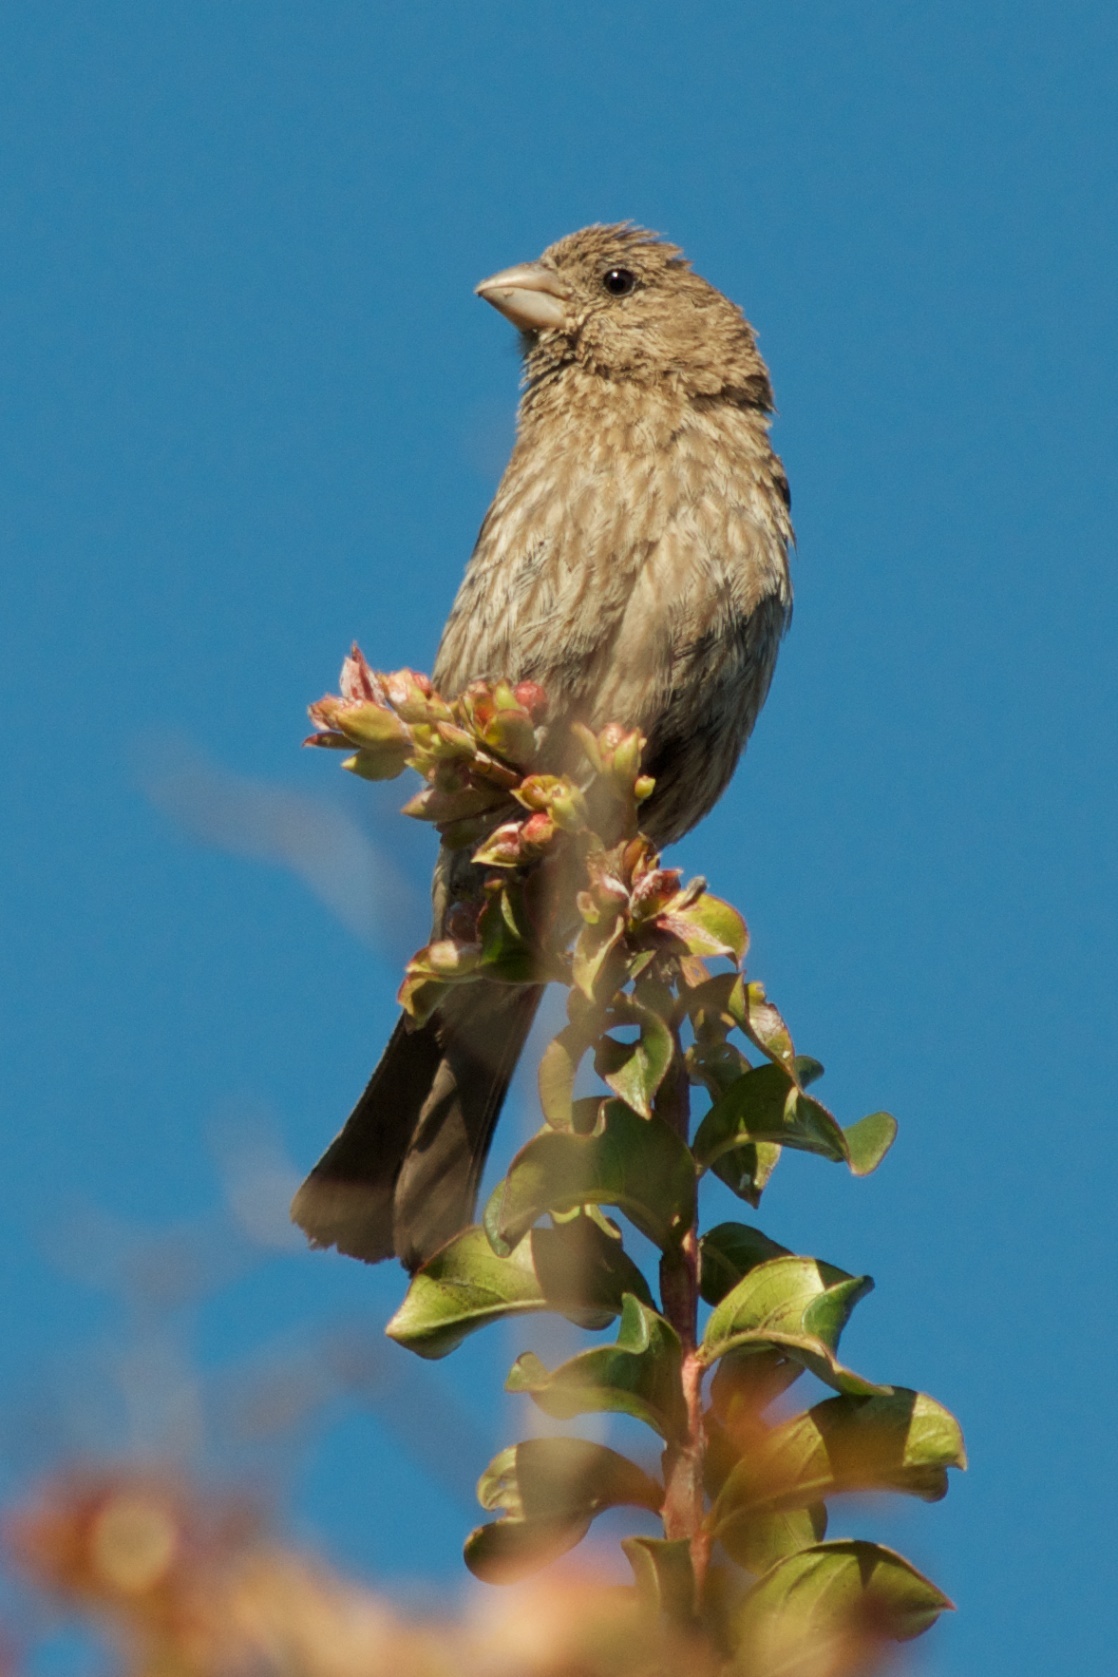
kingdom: Animalia
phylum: Chordata
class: Aves
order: Passeriformes
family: Fringillidae
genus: Haemorhous
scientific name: Haemorhous mexicanus
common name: House finch
